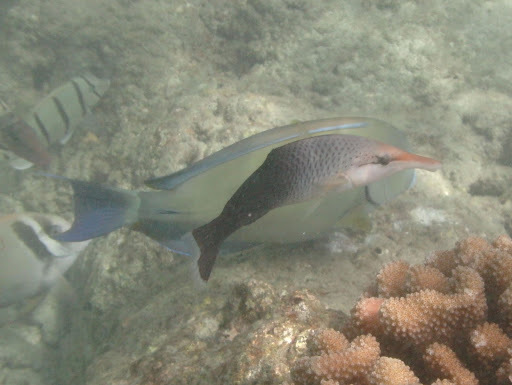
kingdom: Animalia
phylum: Chordata
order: Perciformes
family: Labridae
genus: Gomphosus
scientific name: Gomphosus varius
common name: Bird wrasse
